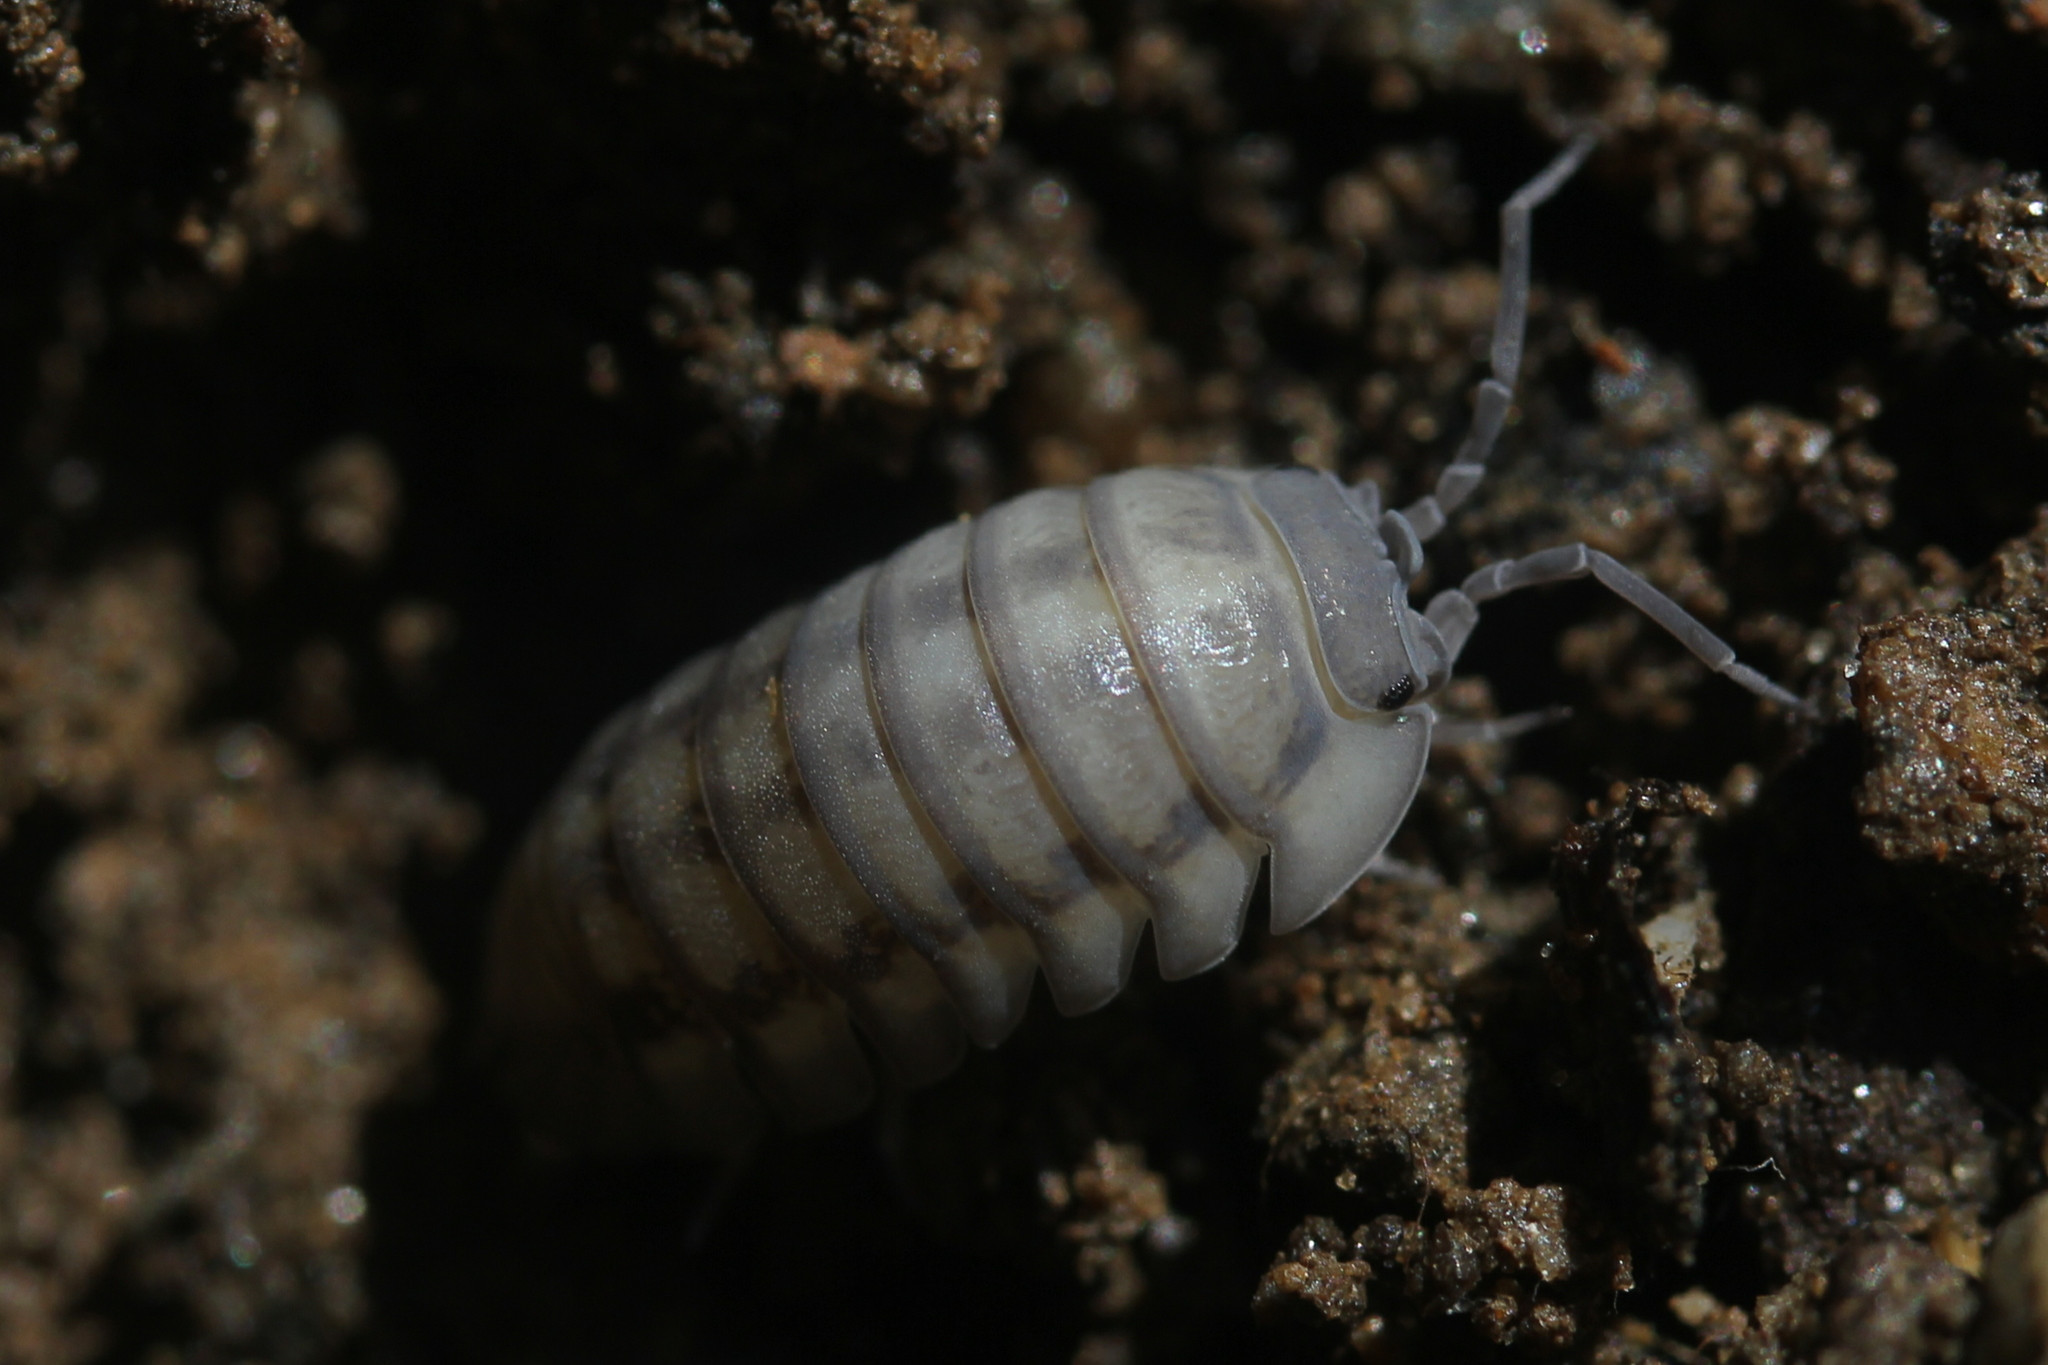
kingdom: Animalia
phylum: Arthropoda
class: Malacostraca
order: Isopoda
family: Armadillidiidae
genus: Armadillidium
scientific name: Armadillidium nasatum
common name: Isopod
